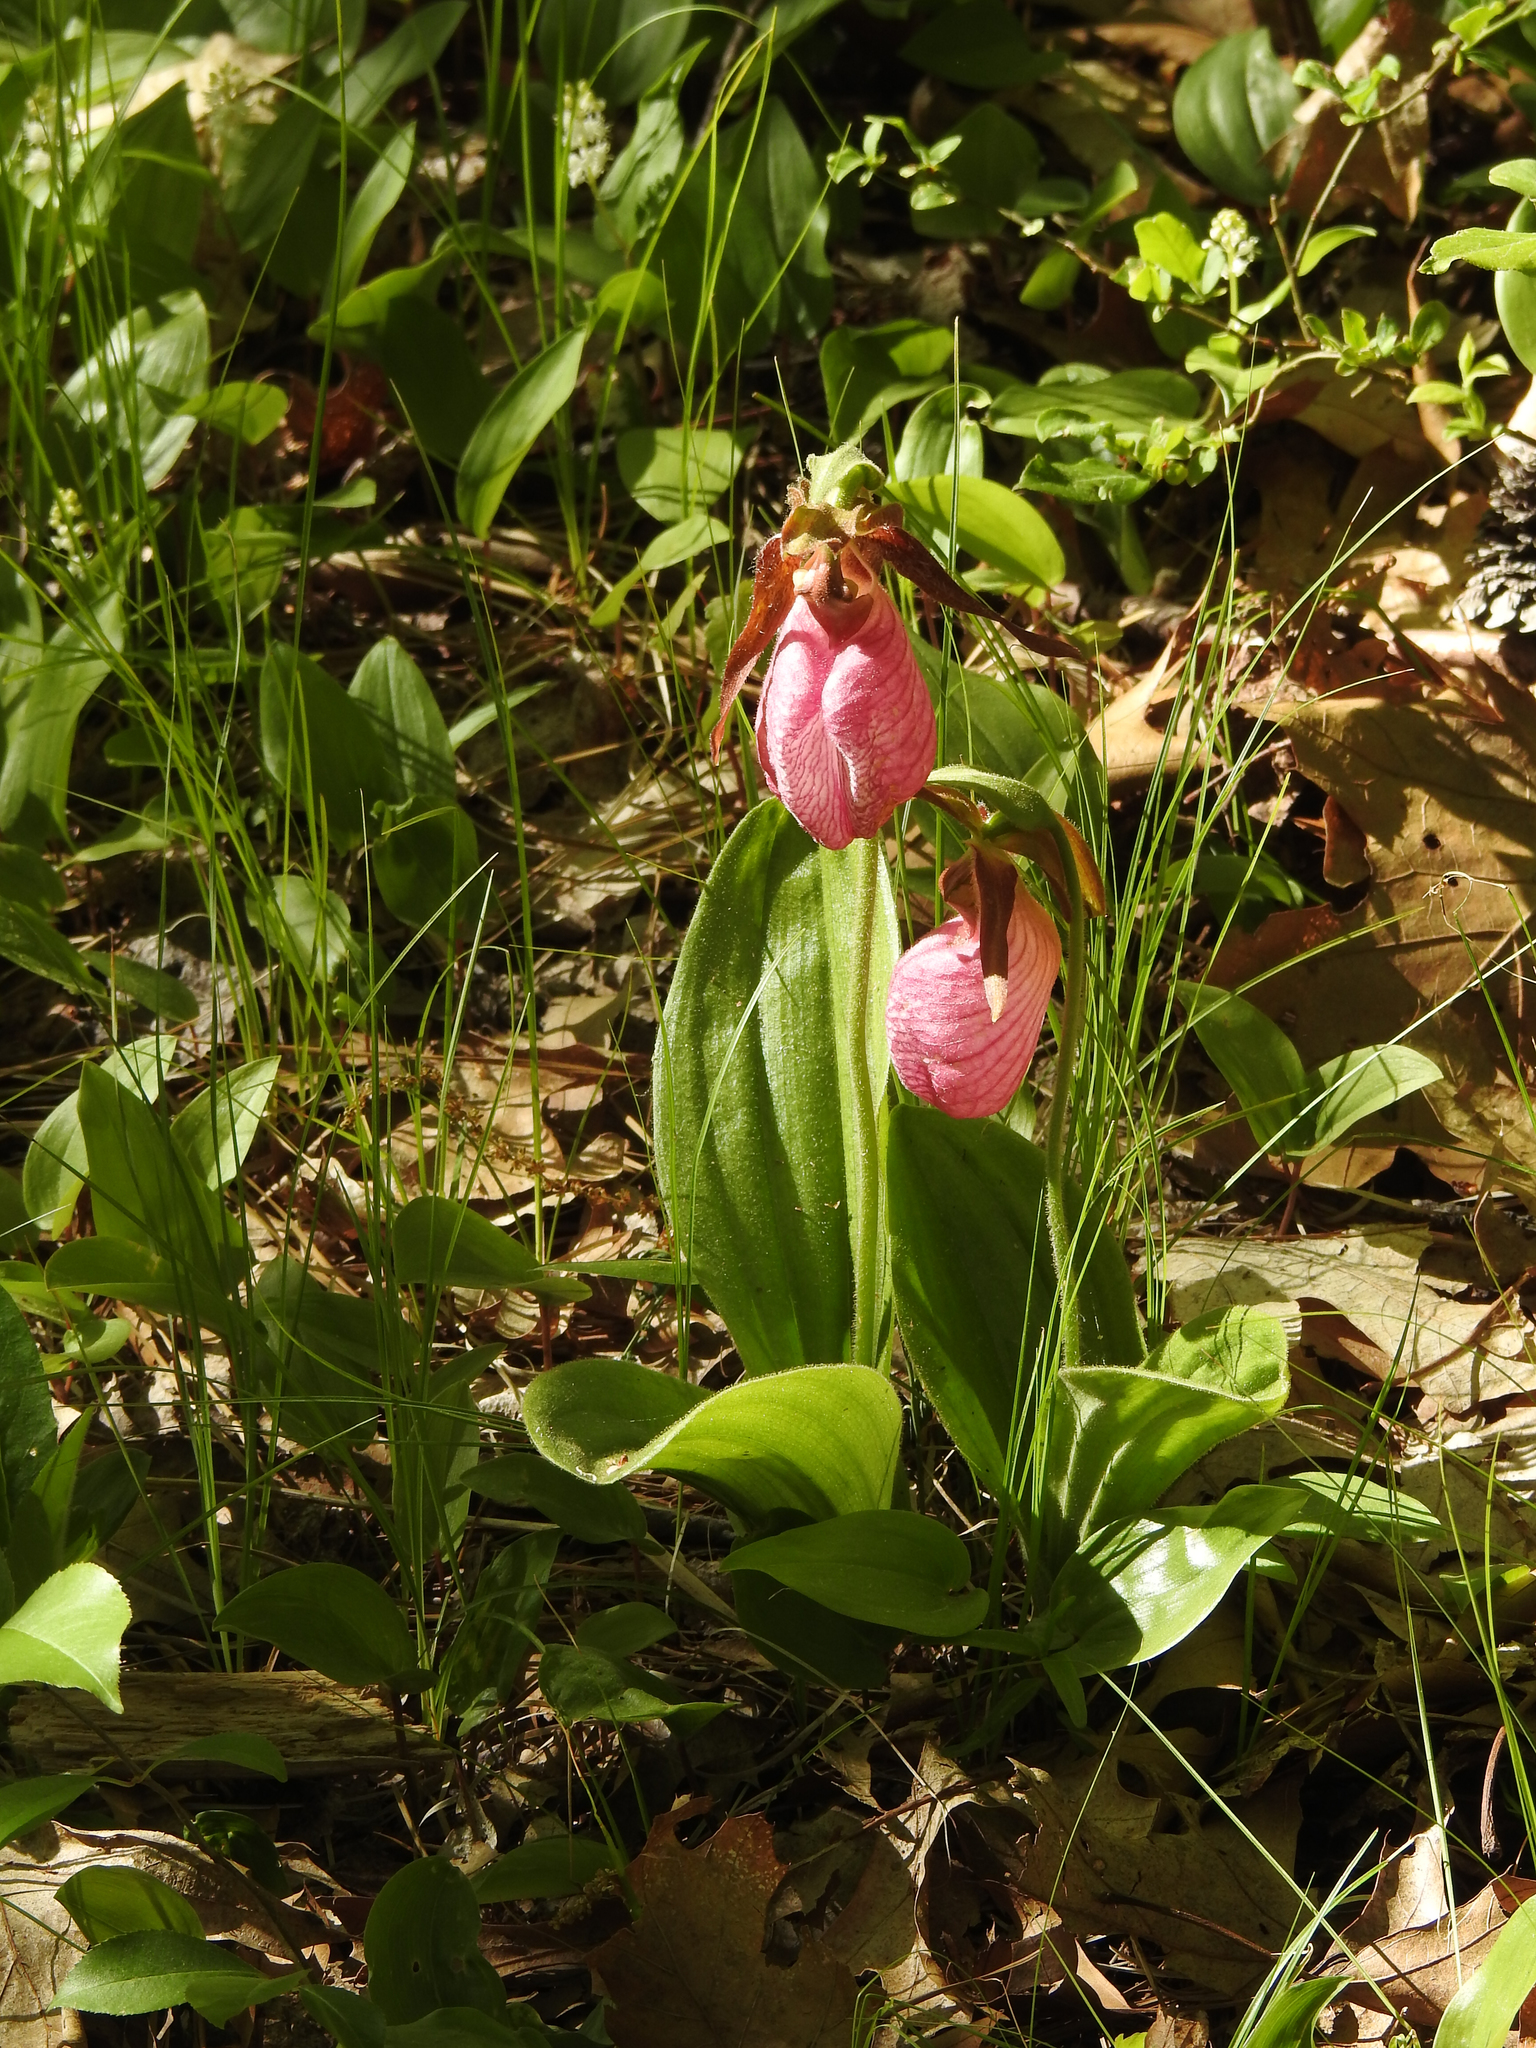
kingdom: Plantae
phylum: Tracheophyta
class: Liliopsida
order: Asparagales
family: Orchidaceae
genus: Cypripedium
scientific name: Cypripedium acaule
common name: Pink lady's-slipper
